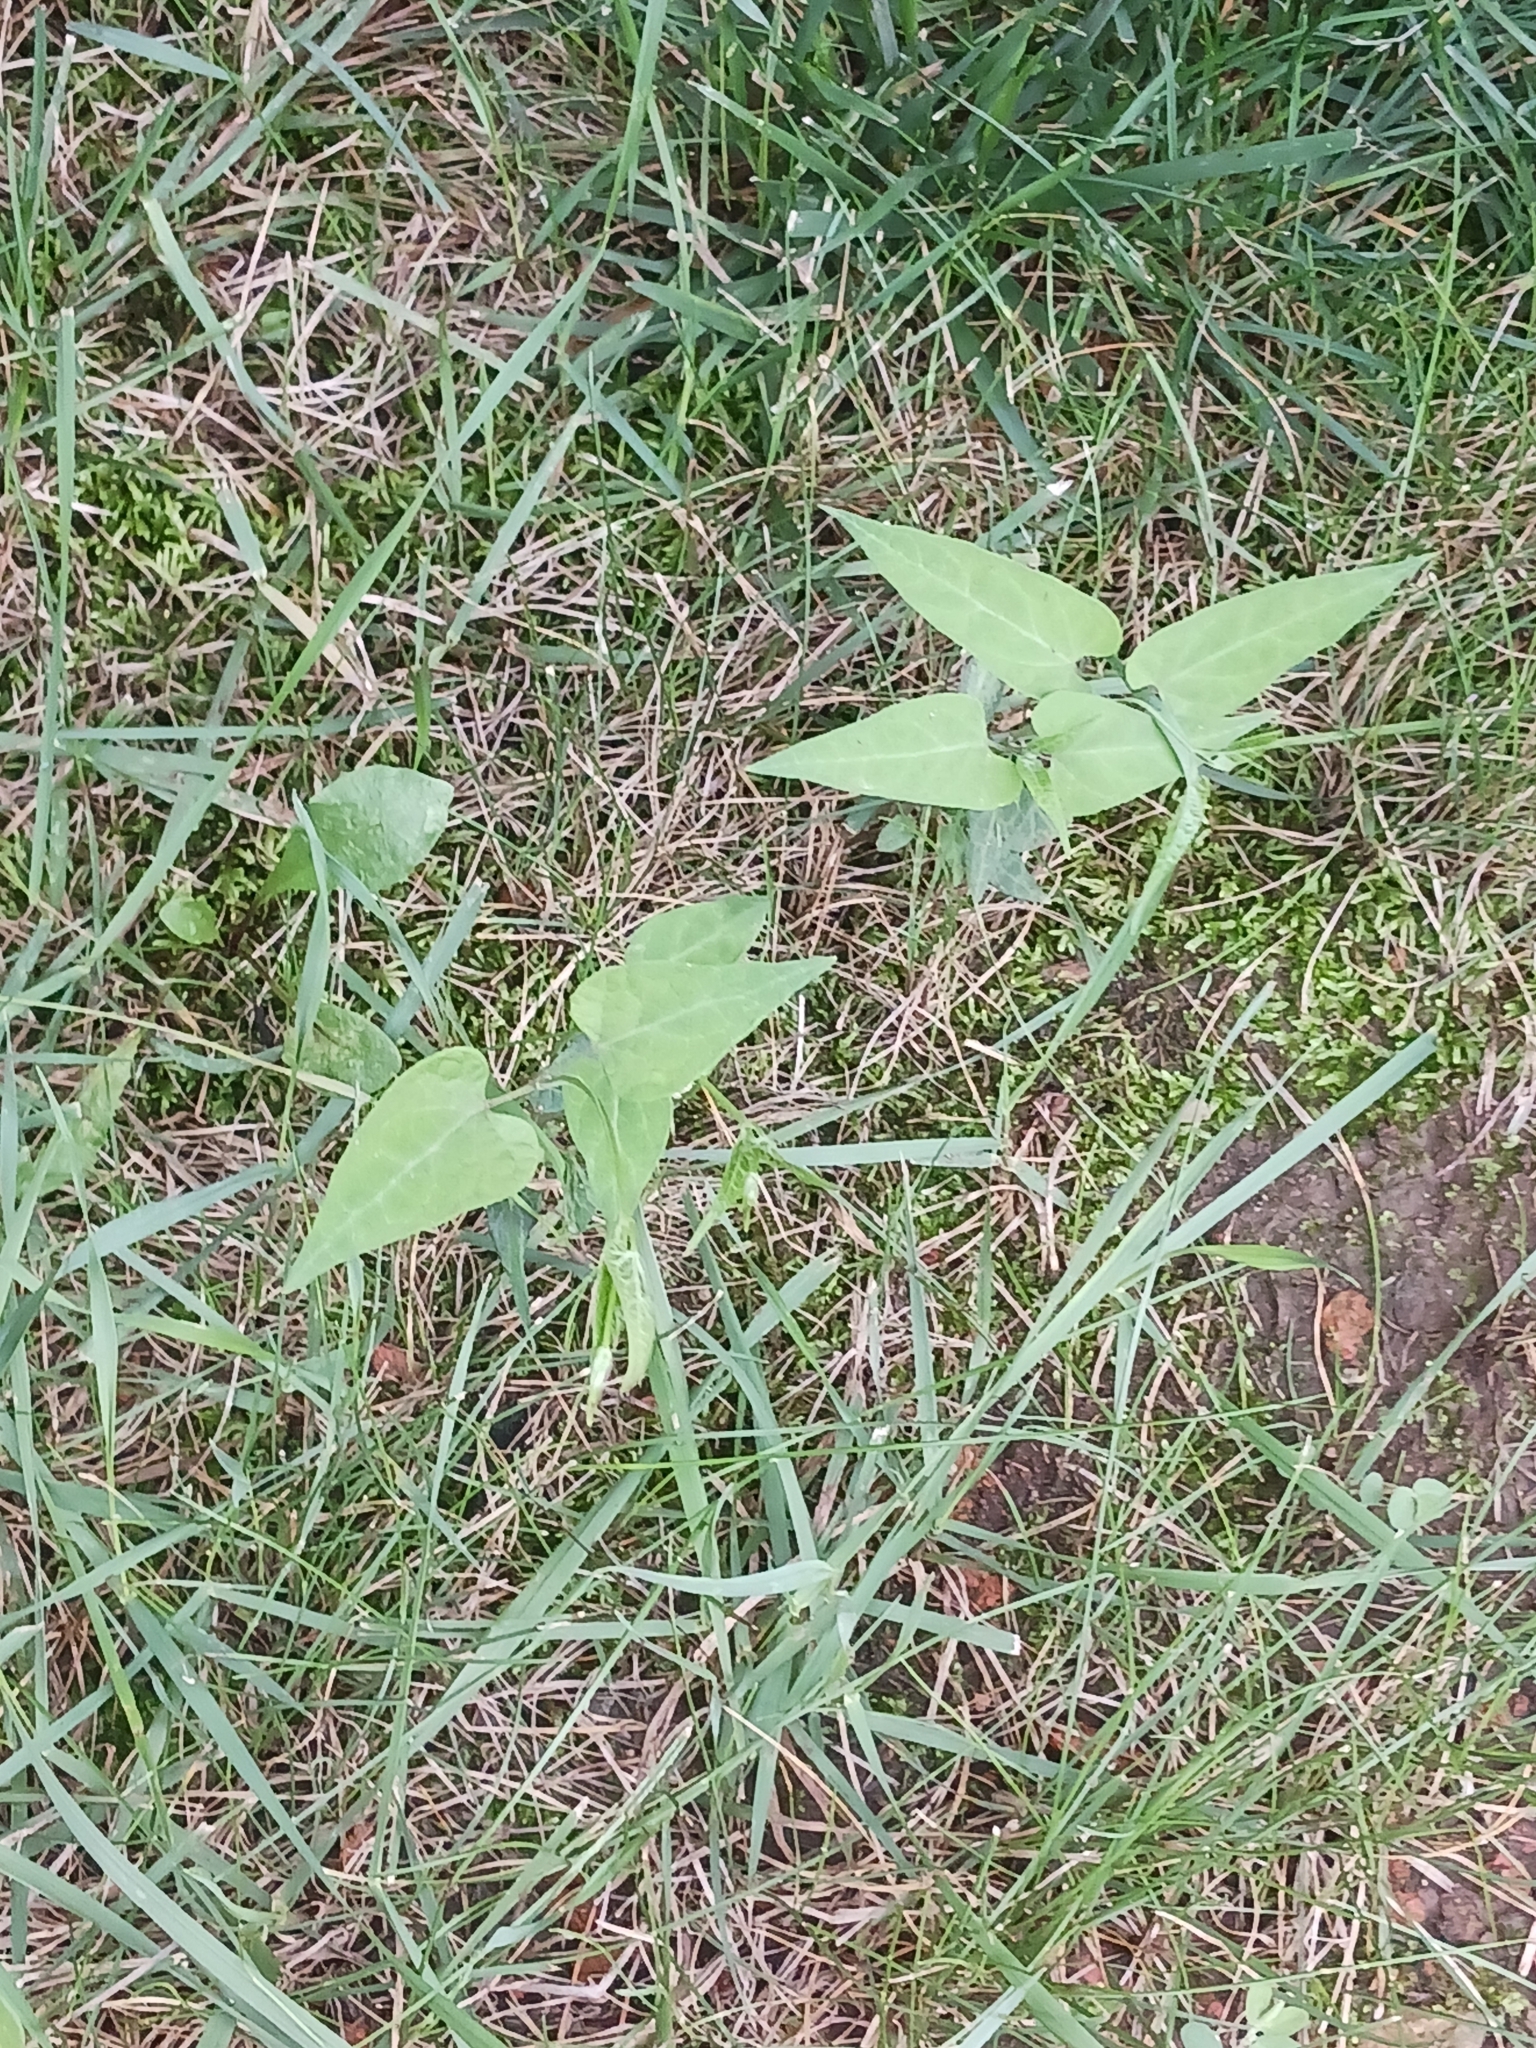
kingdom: Plantae
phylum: Tracheophyta
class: Magnoliopsida
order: Gentianales
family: Apocynaceae
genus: Cynanchum
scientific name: Cynanchum laeve
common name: Sandvine
